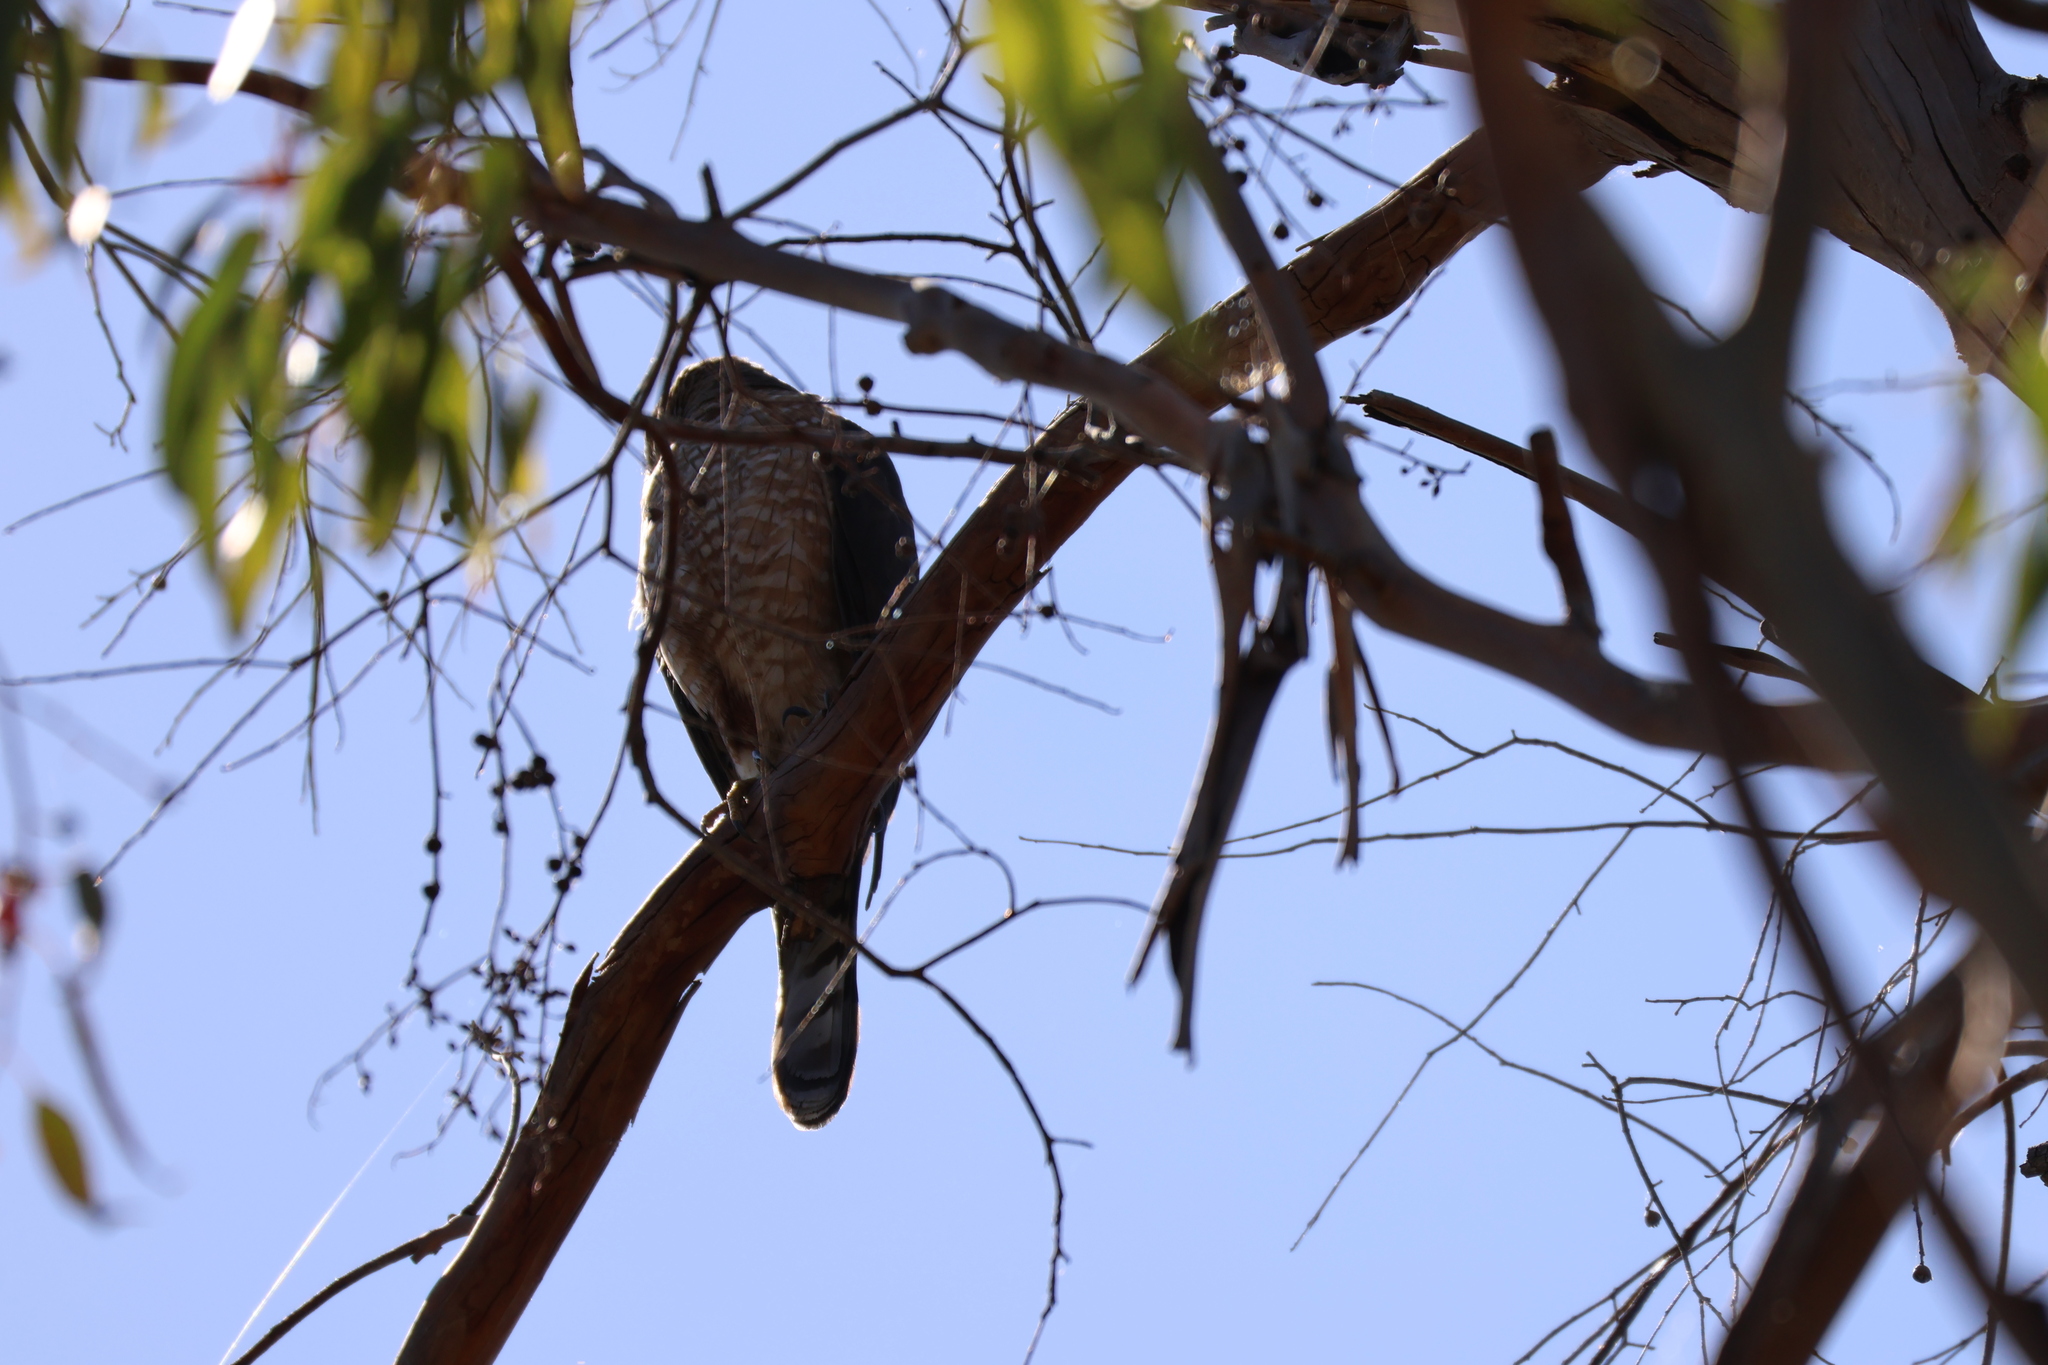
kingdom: Animalia
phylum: Chordata
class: Aves
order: Accipitriformes
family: Accipitridae
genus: Accipiter
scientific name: Accipiter cooperii
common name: Cooper's hawk
